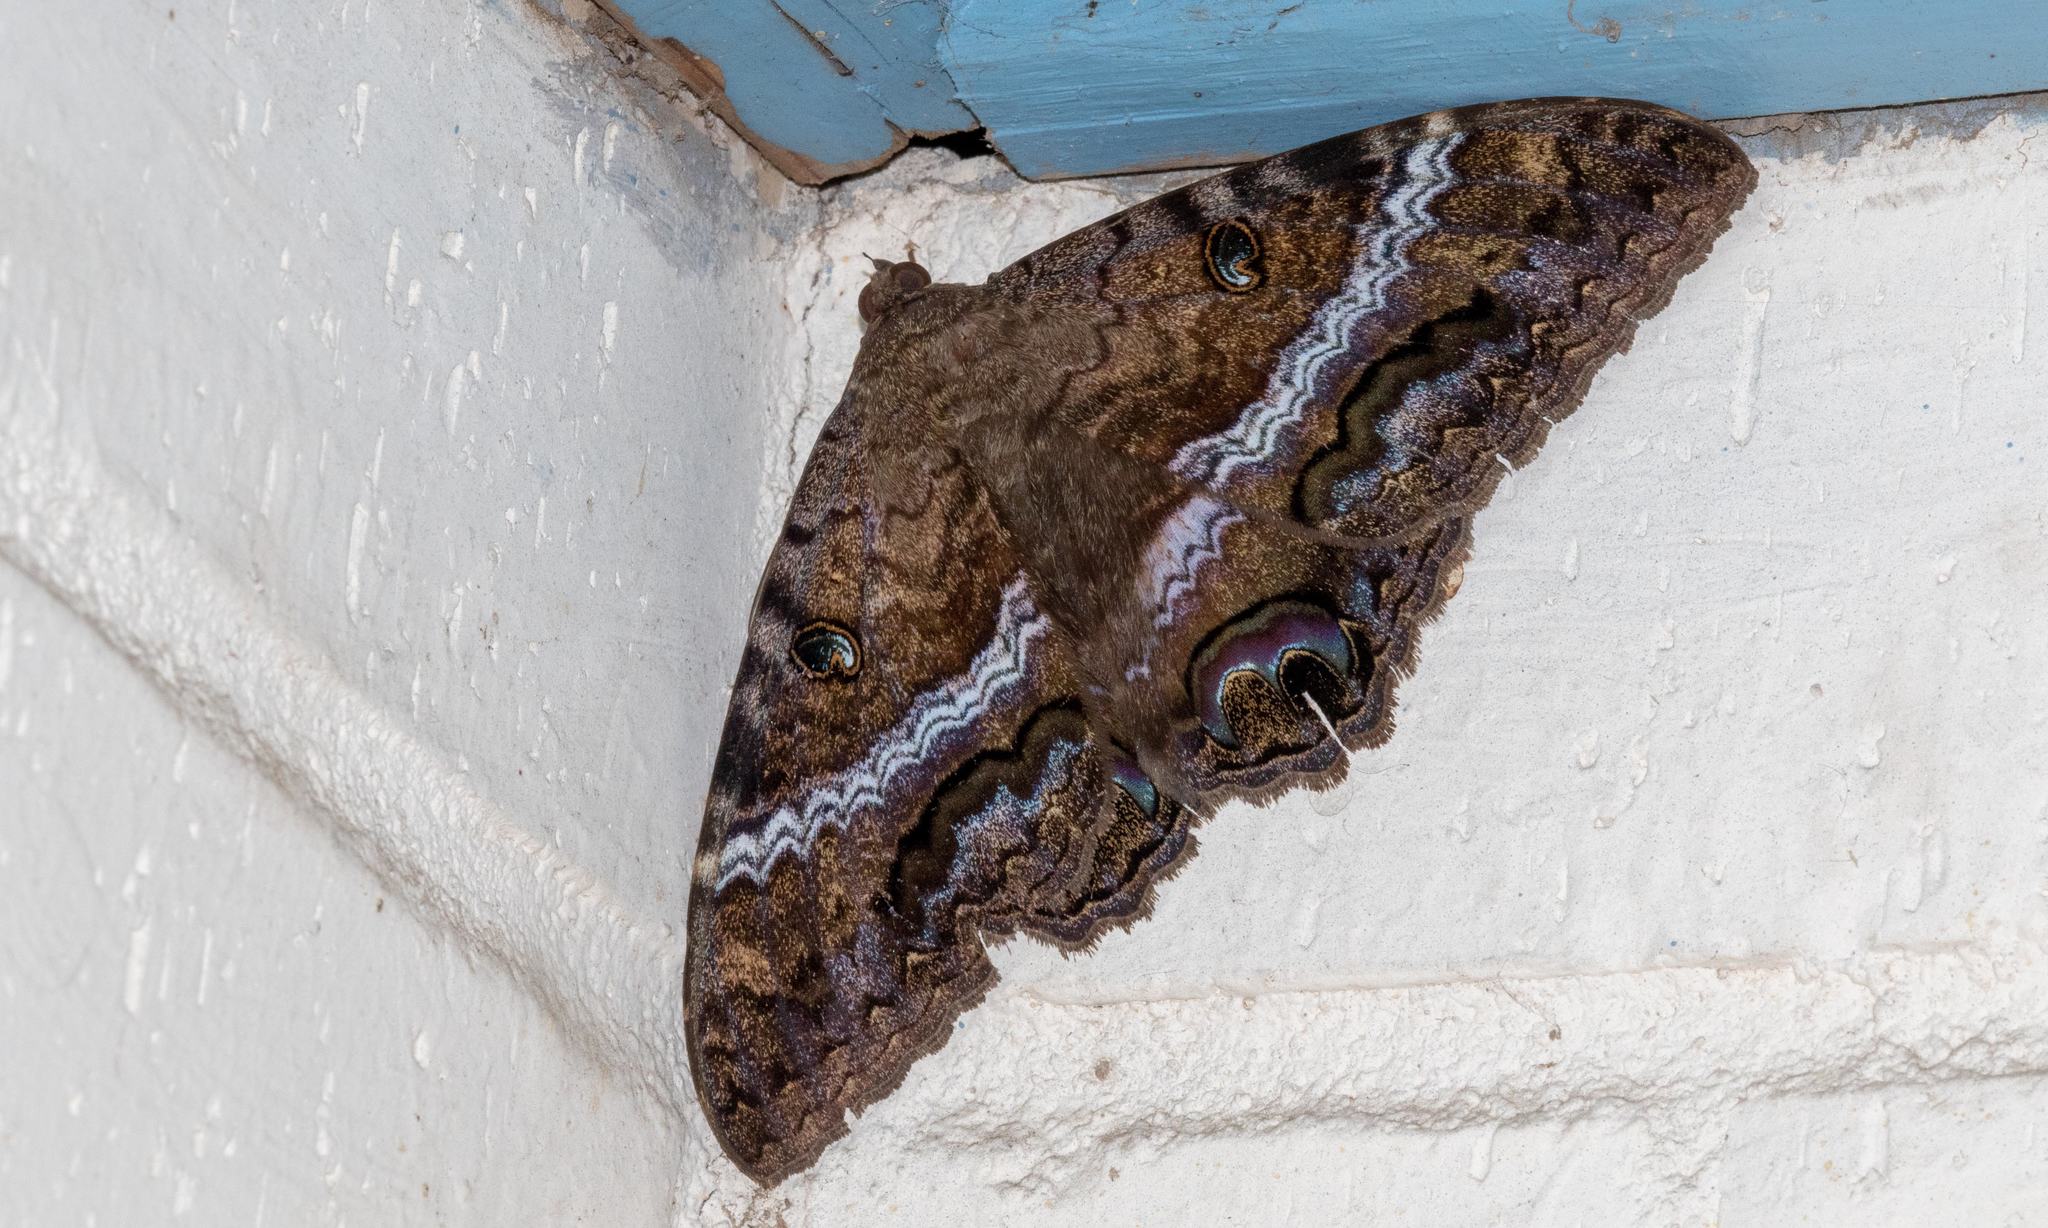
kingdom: Animalia
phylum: Arthropoda
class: Insecta
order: Lepidoptera
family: Erebidae
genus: Ascalapha
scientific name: Ascalapha odorata
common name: Black witch
